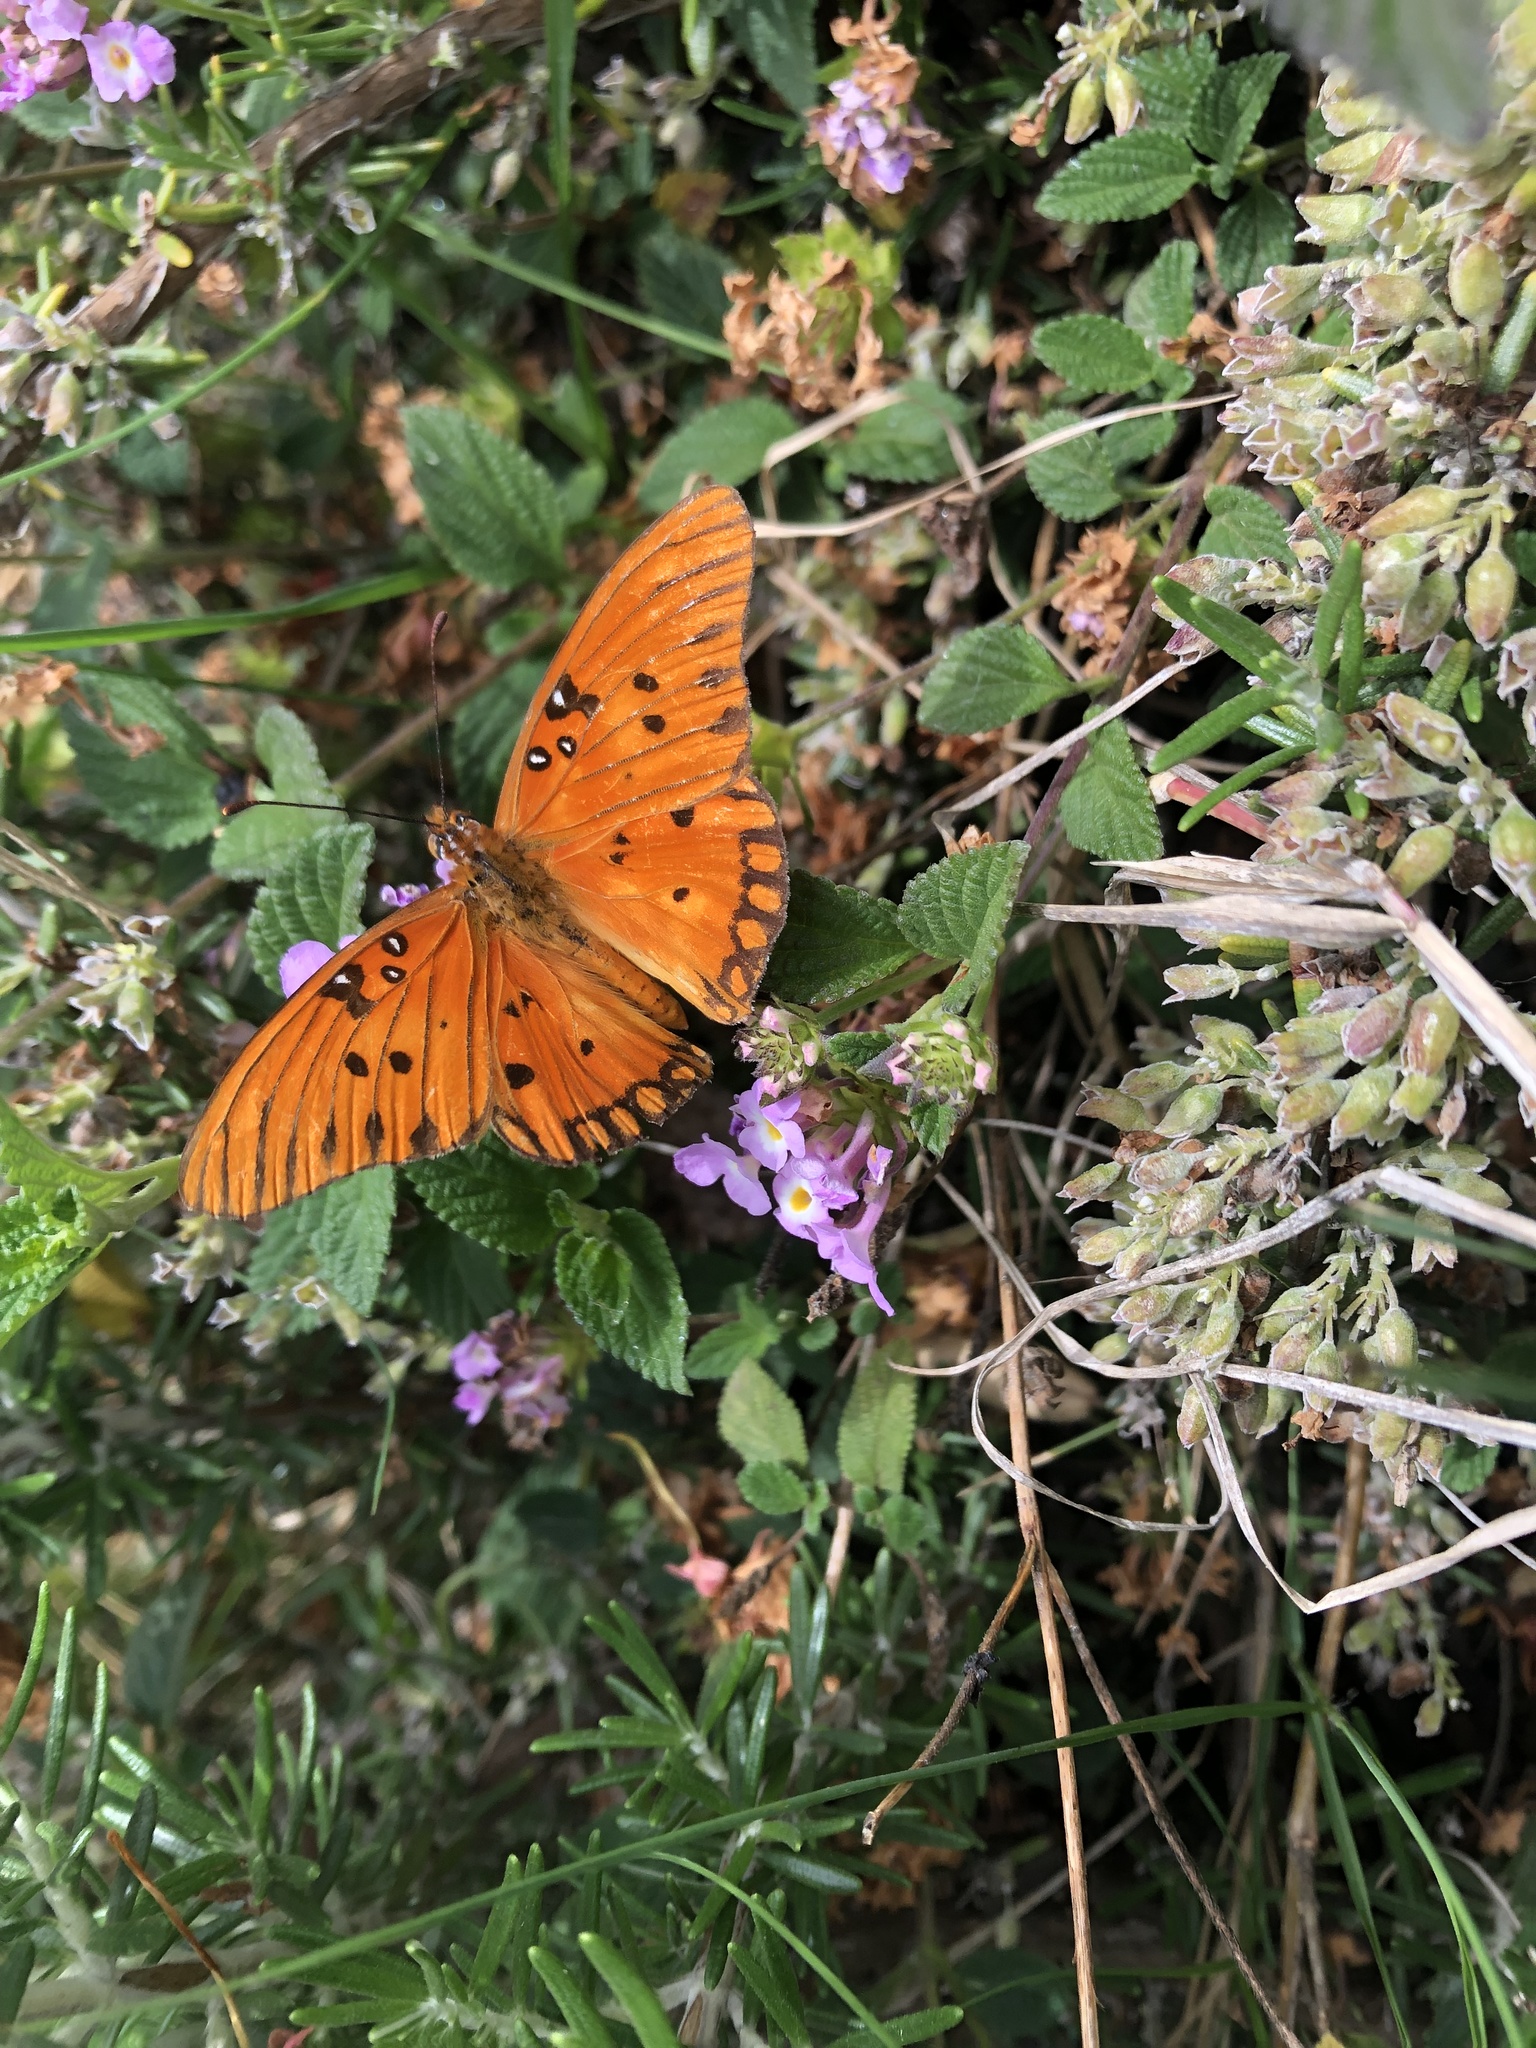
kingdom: Animalia
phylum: Arthropoda
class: Insecta
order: Lepidoptera
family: Nymphalidae
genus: Dione
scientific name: Dione vanillae
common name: Gulf fritillary
